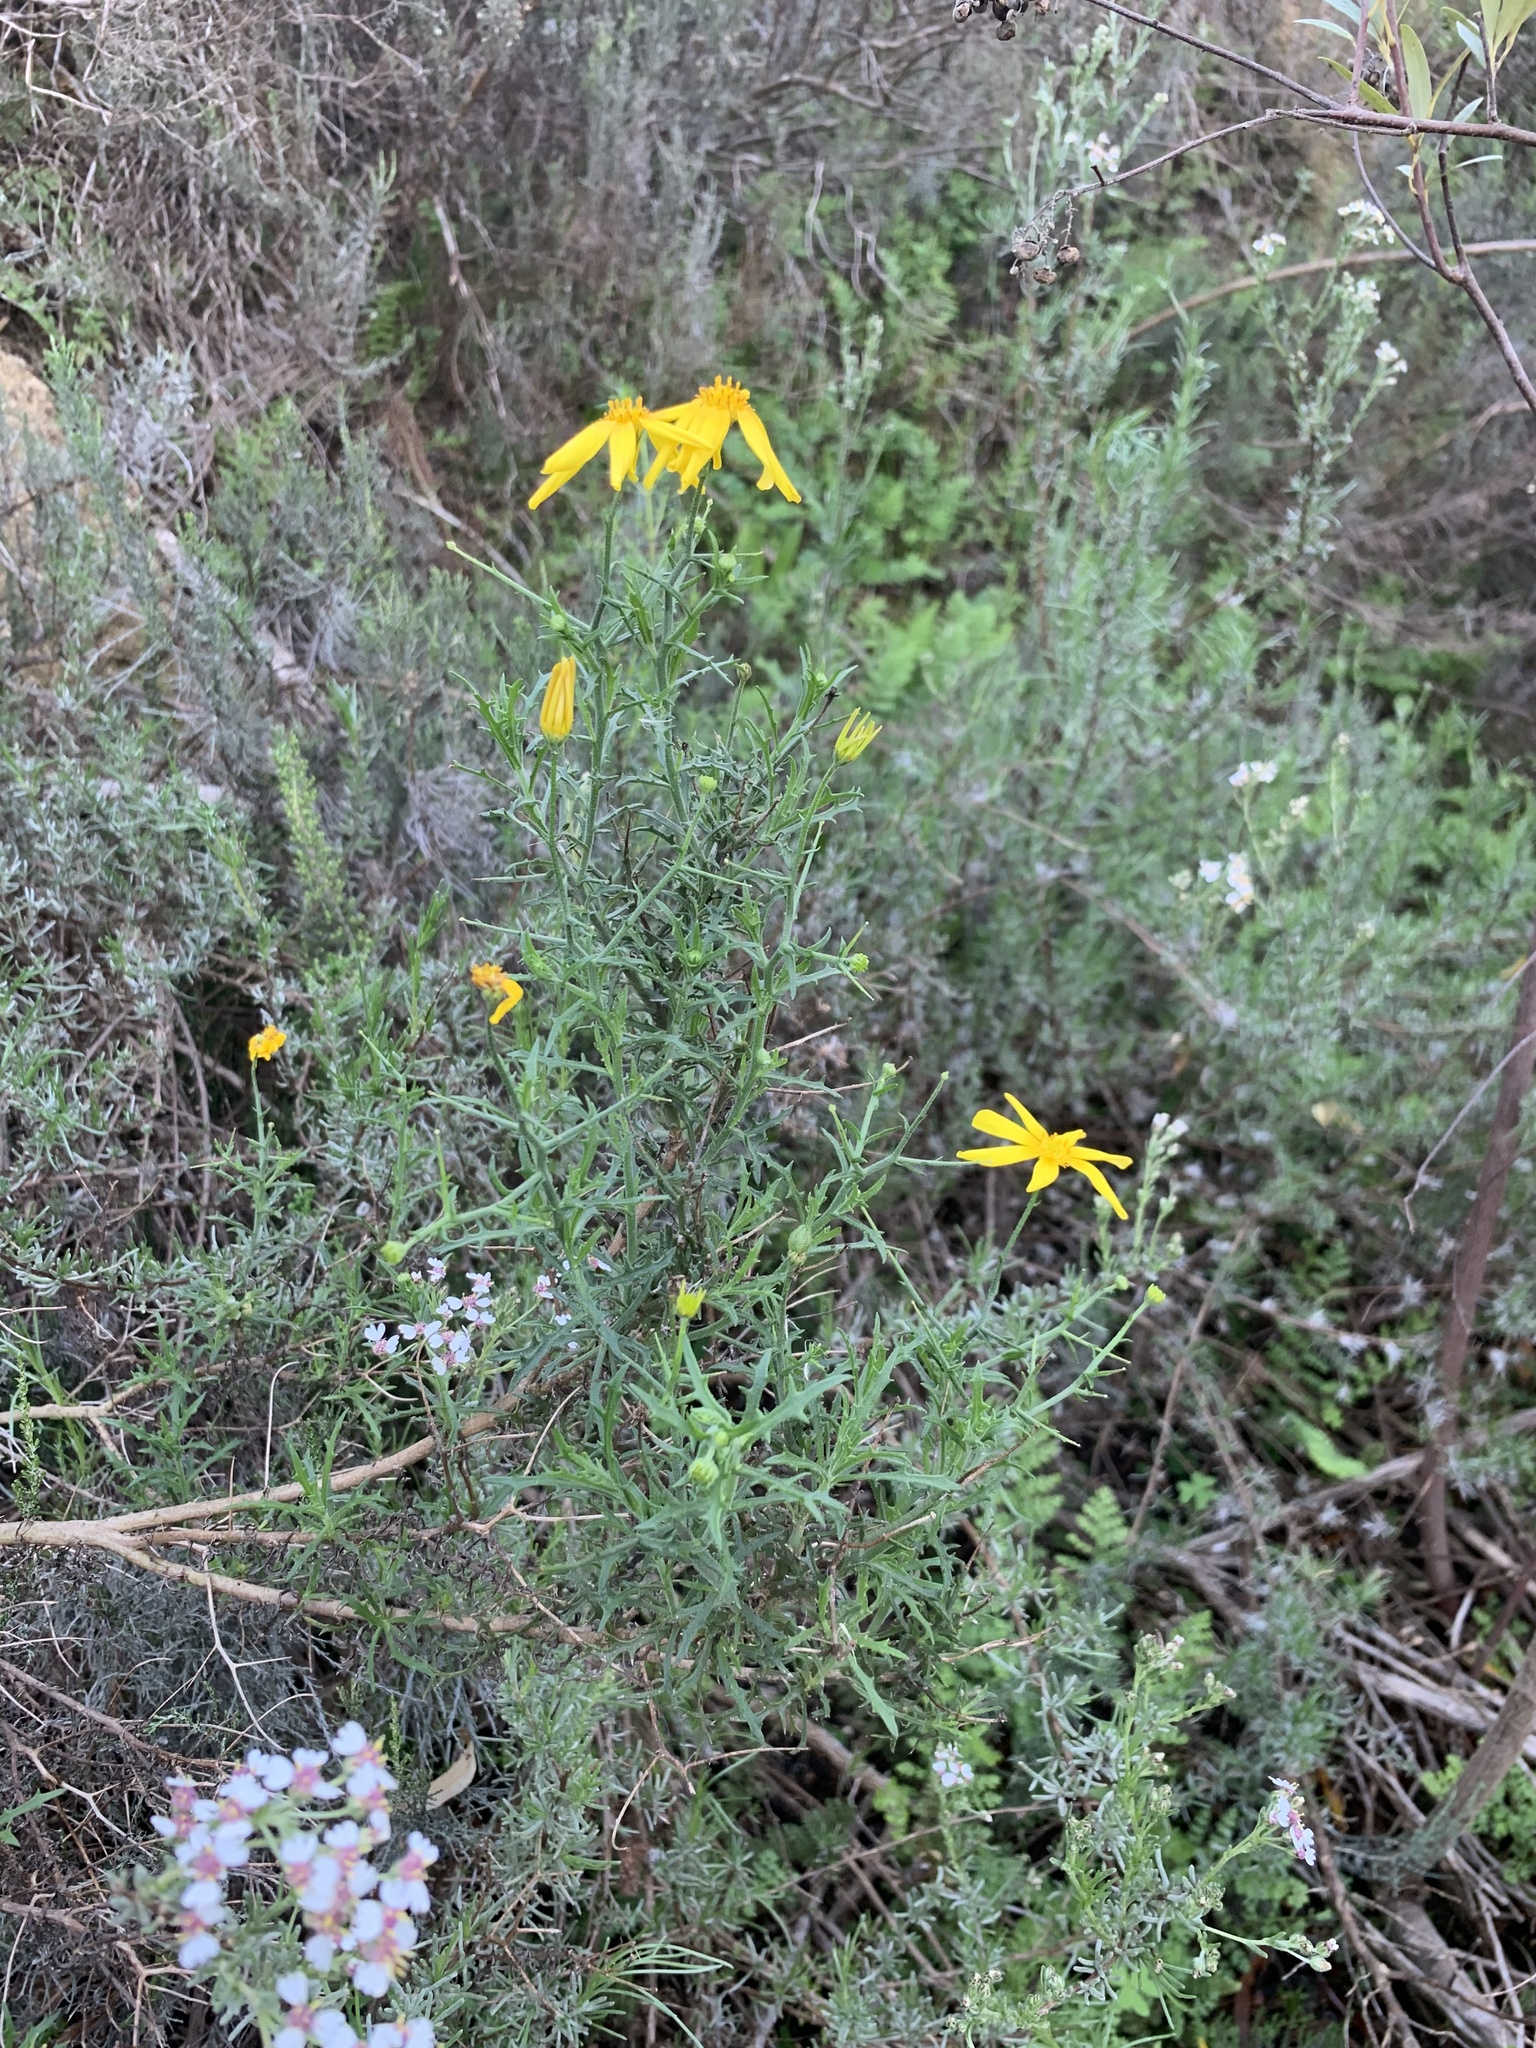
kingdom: Plantae
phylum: Tracheophyta
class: Magnoliopsida
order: Asterales
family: Asteraceae
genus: Osteospermum
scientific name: Osteospermum spinosum
